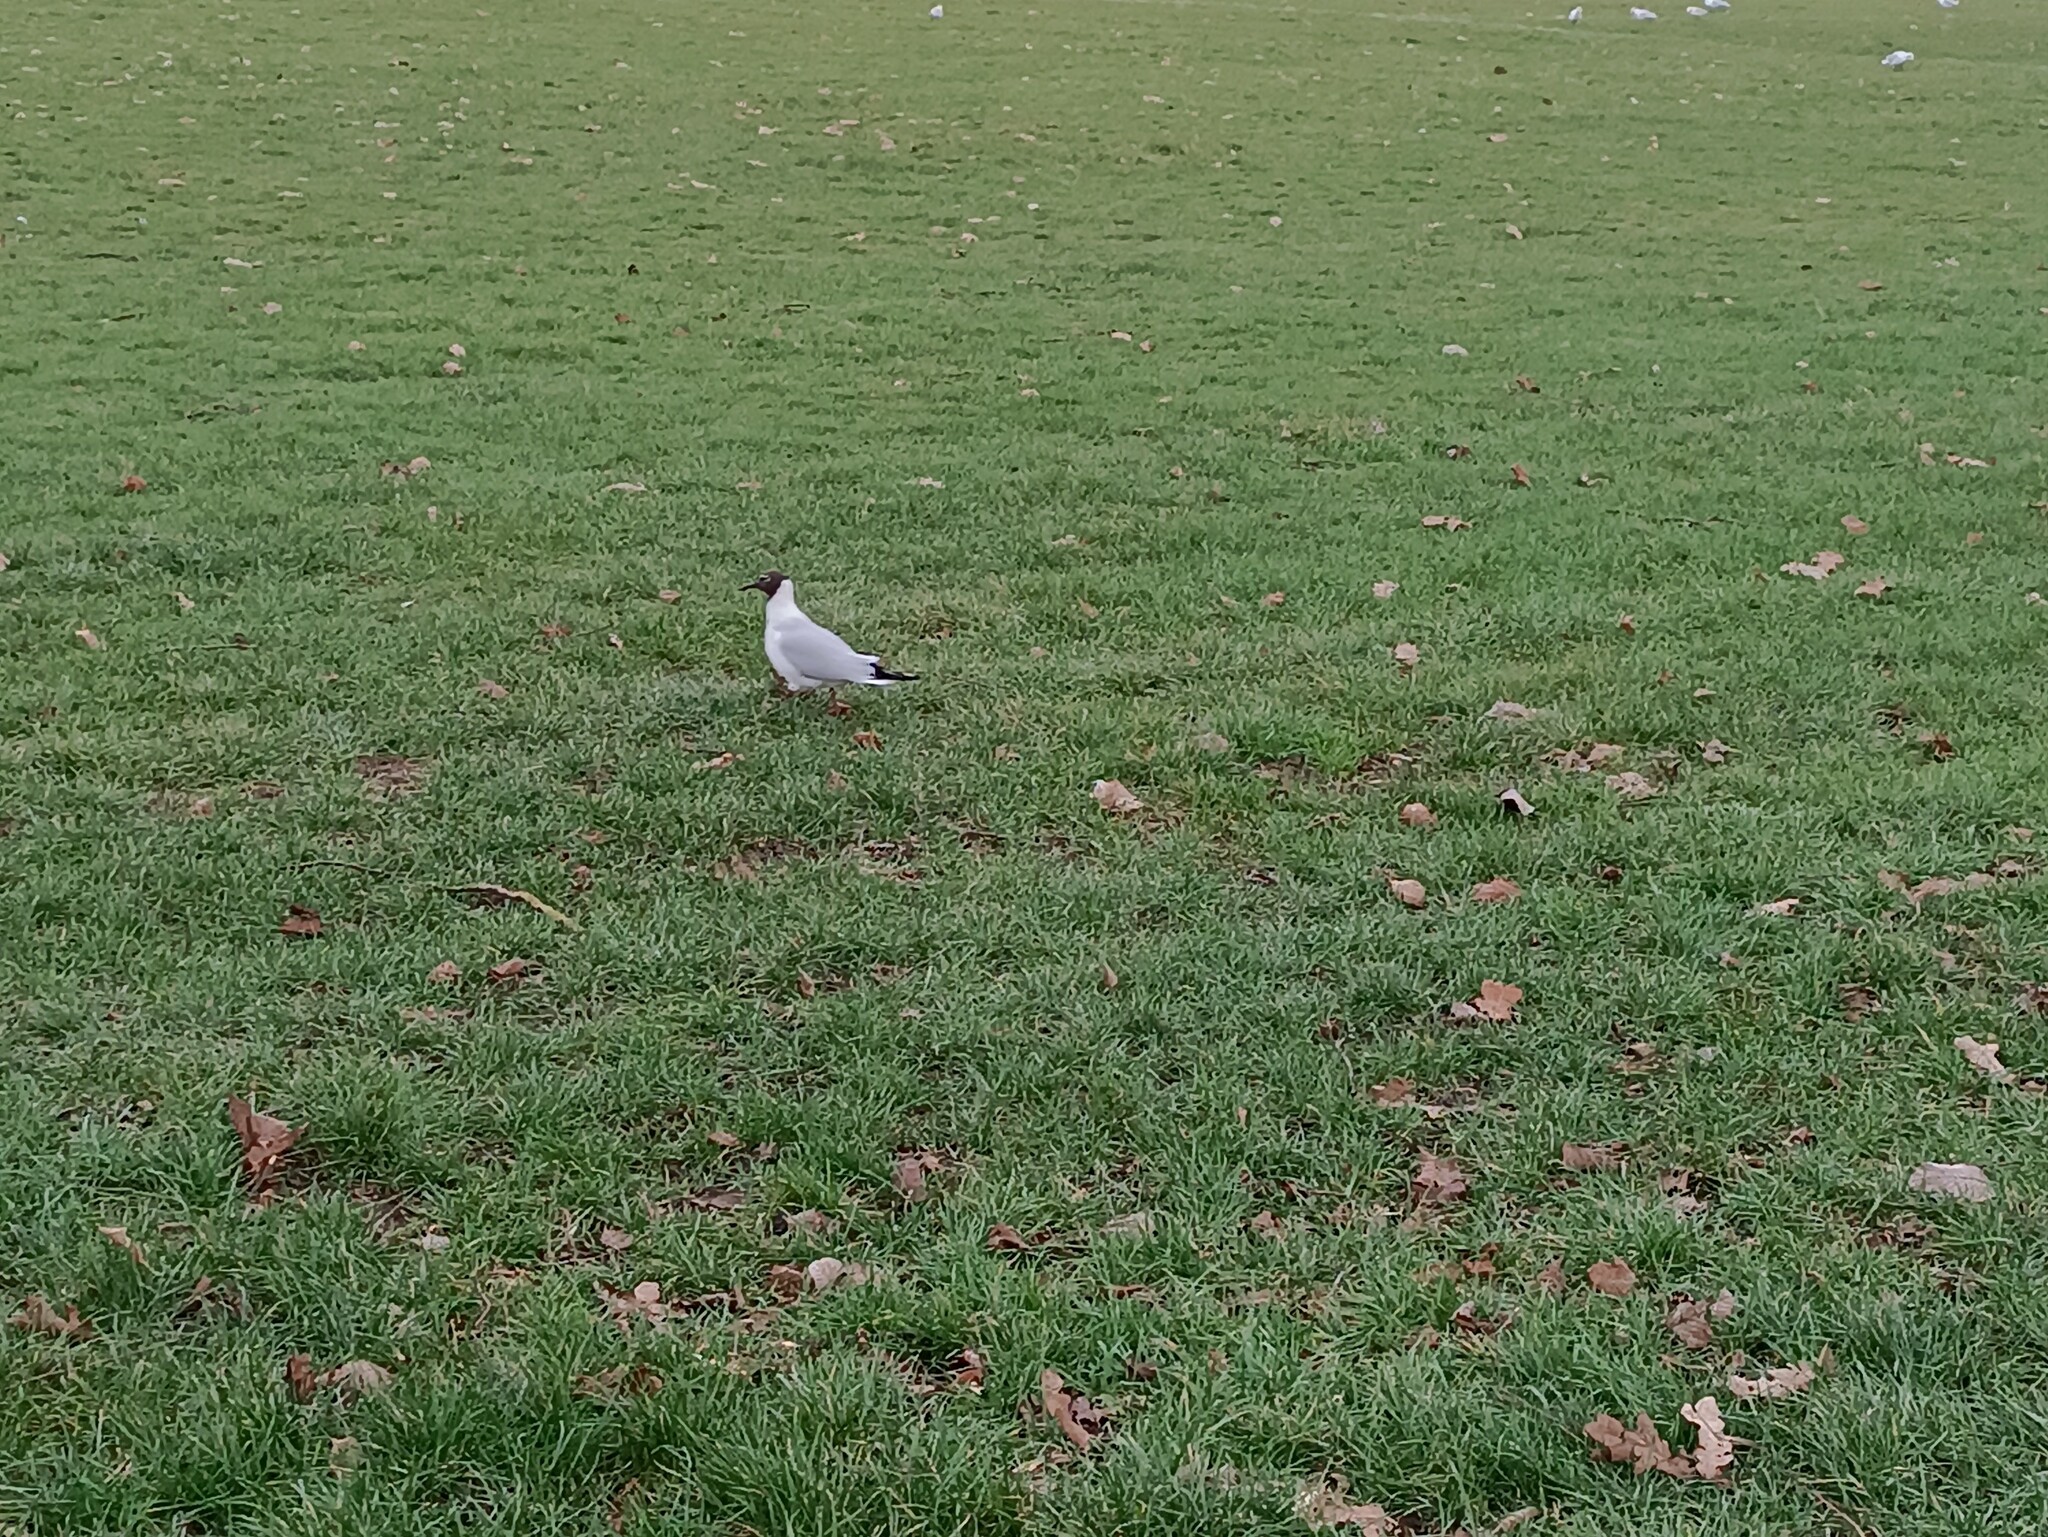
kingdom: Animalia
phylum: Chordata
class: Aves
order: Charadriiformes
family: Laridae
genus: Chroicocephalus
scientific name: Chroicocephalus ridibundus
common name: Black-headed gull
